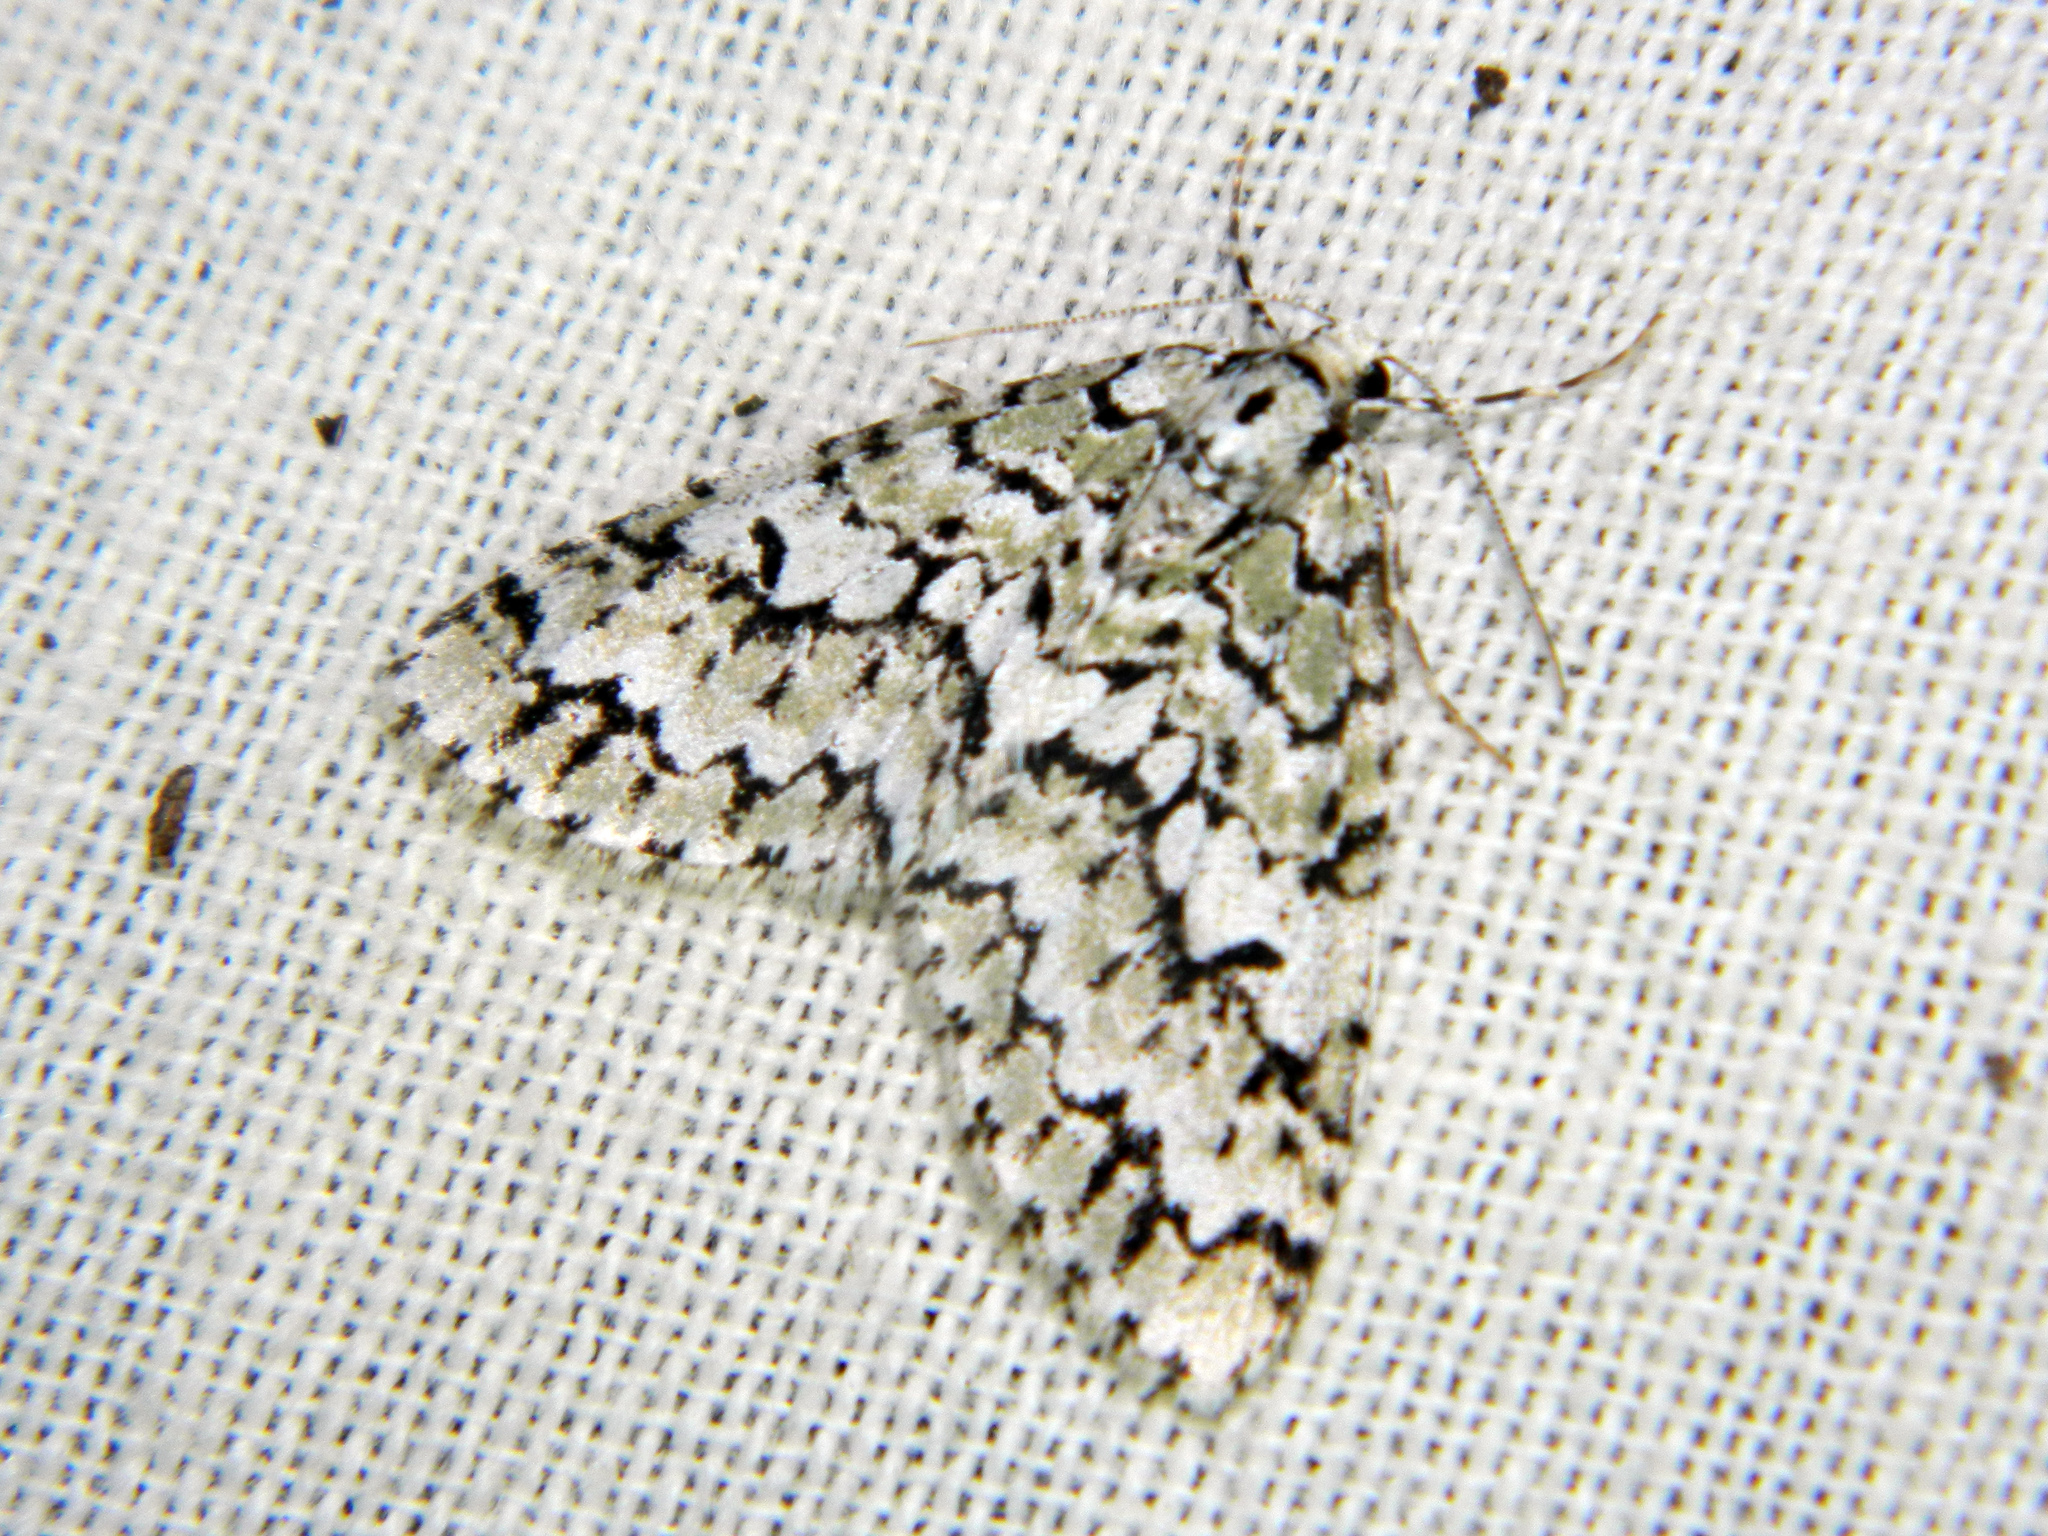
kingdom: Animalia
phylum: Arthropoda
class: Insecta
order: Lepidoptera
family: Geometridae
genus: Cladara
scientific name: Cladara atroliturata
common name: Scribbler
